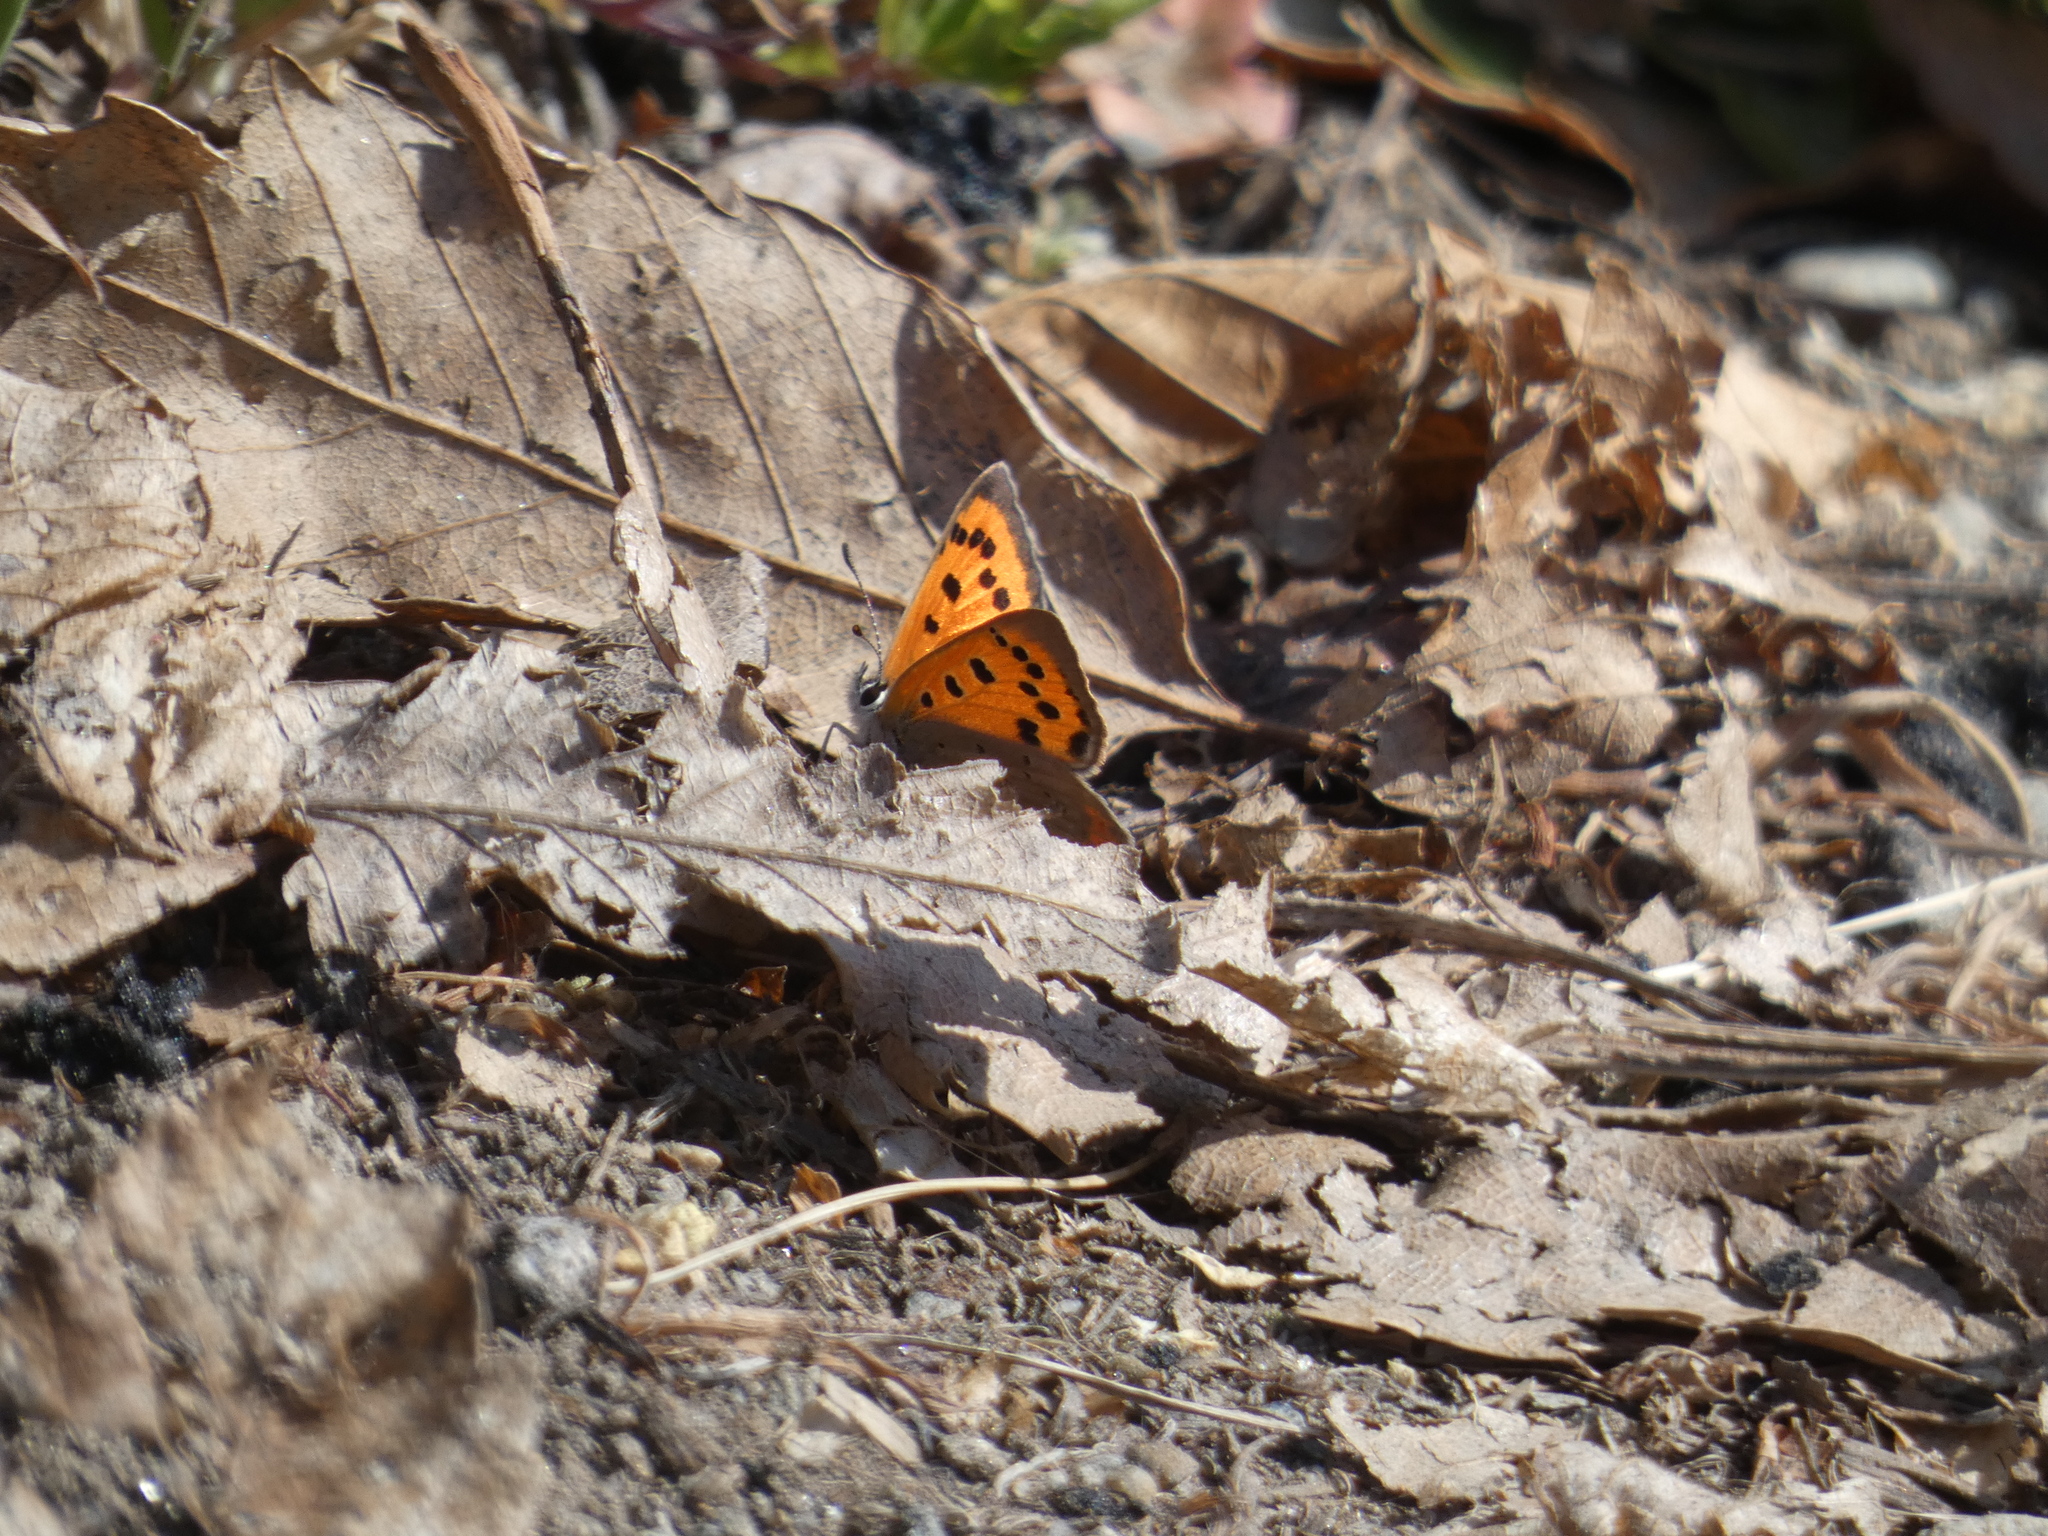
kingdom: Animalia
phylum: Arthropoda
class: Insecta
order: Lepidoptera
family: Lycaenidae
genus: Lycaena
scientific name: Lycaena phlaeas
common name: Small copper
